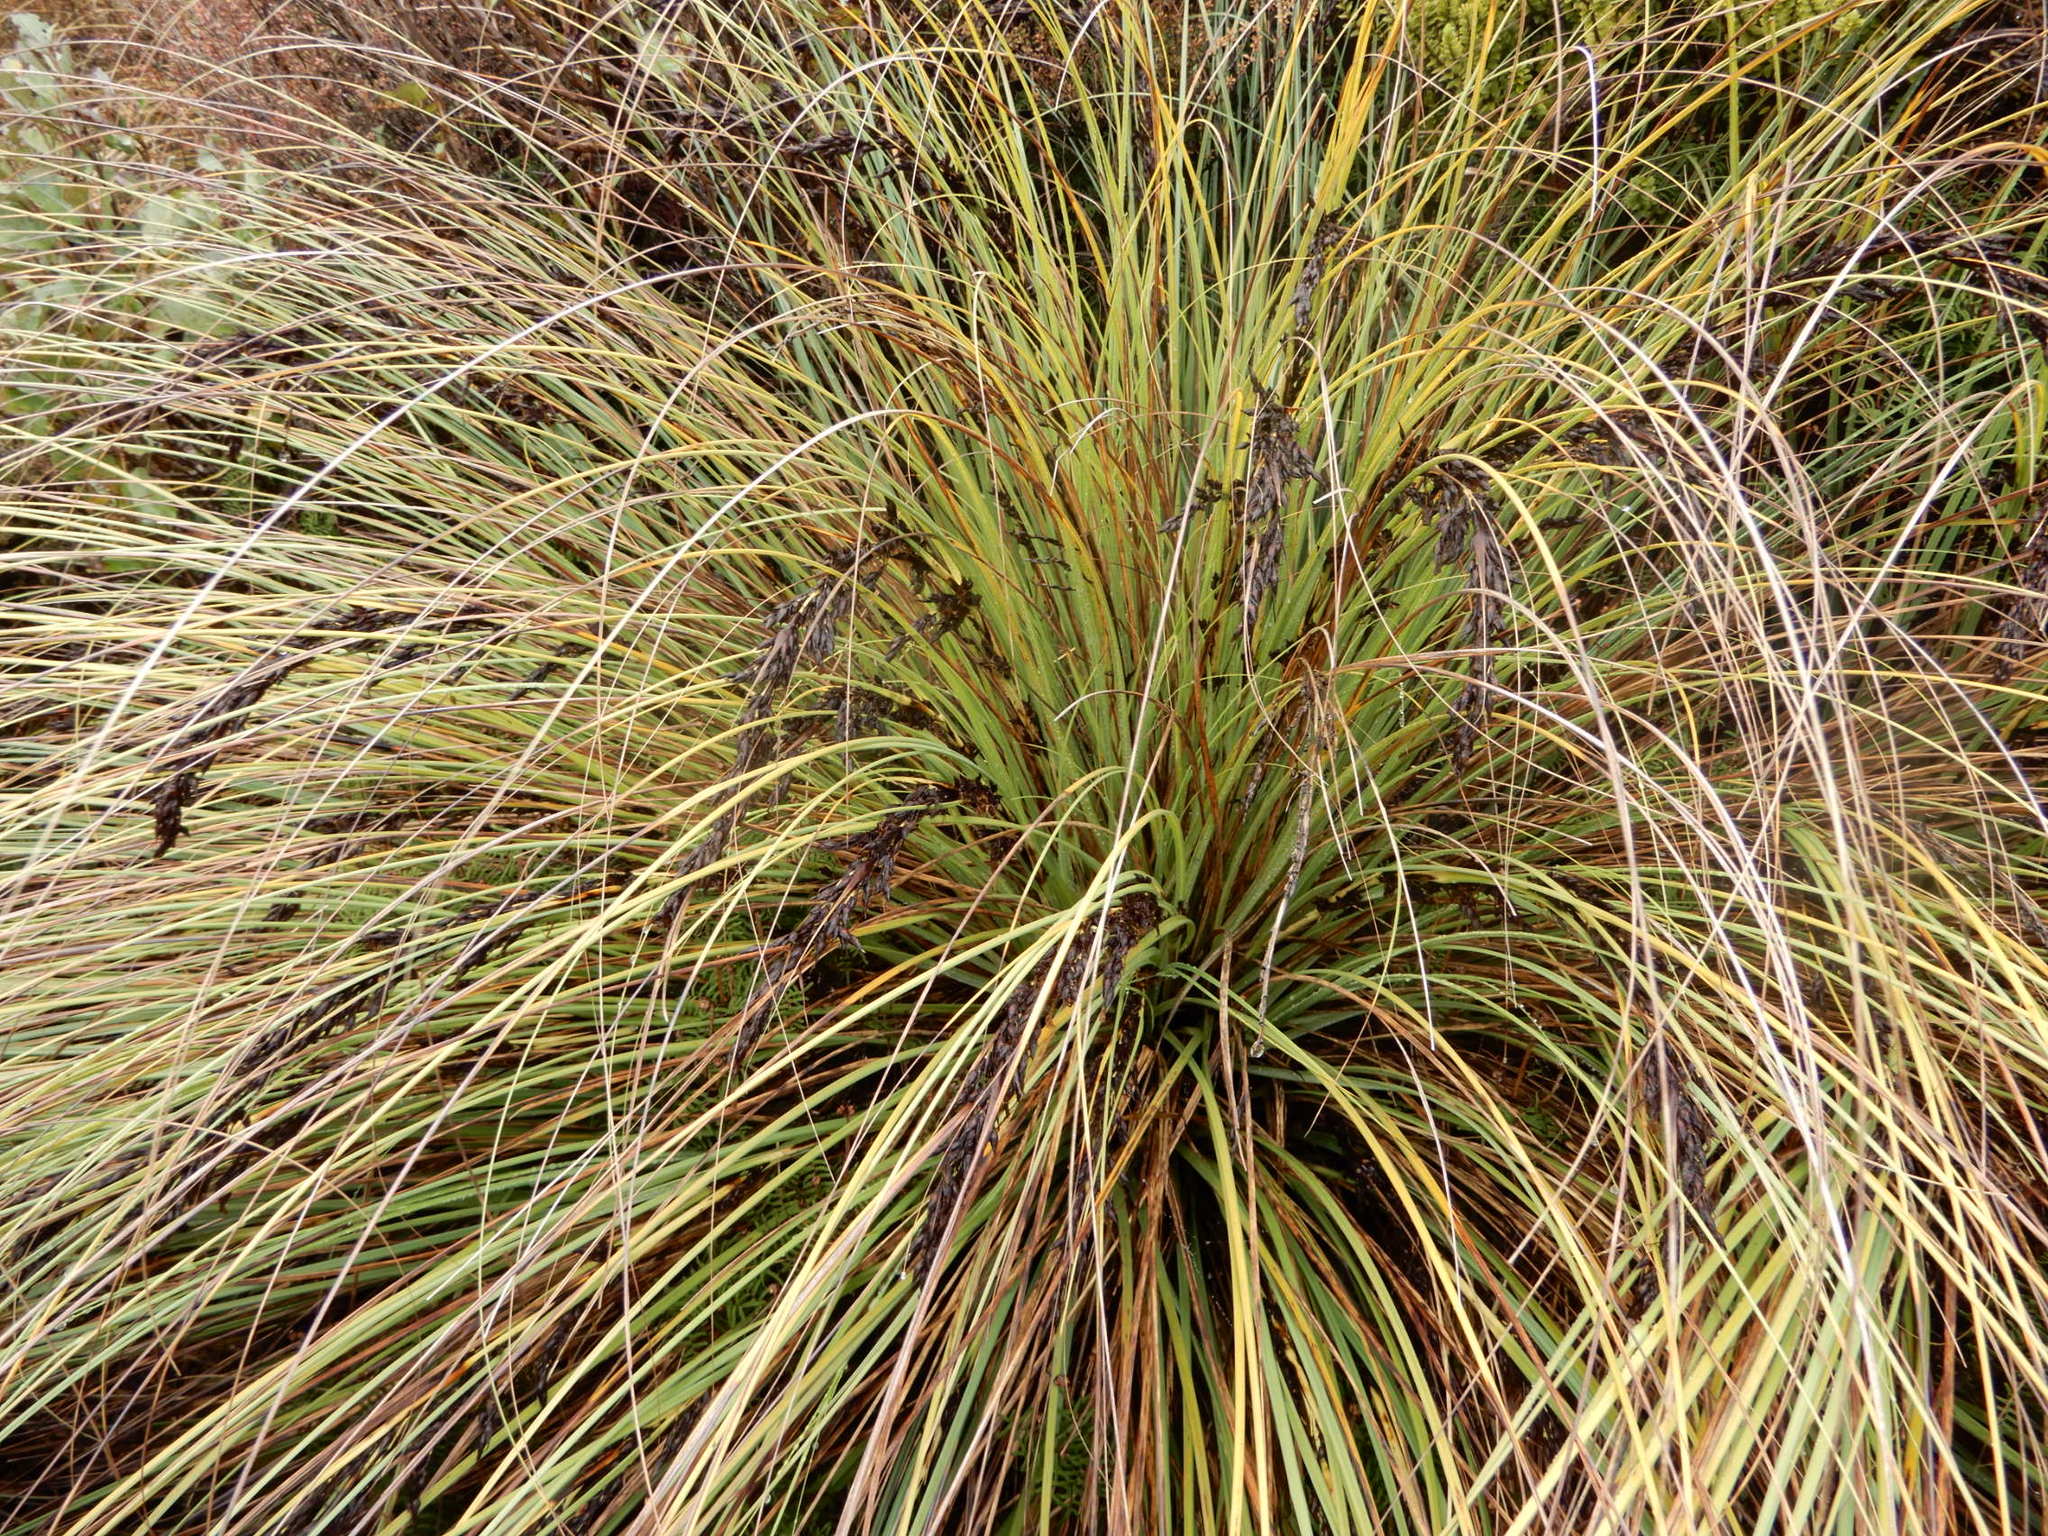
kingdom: Plantae
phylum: Tracheophyta
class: Liliopsida
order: Poales
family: Cyperaceae
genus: Gahnia
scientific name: Gahnia procera
